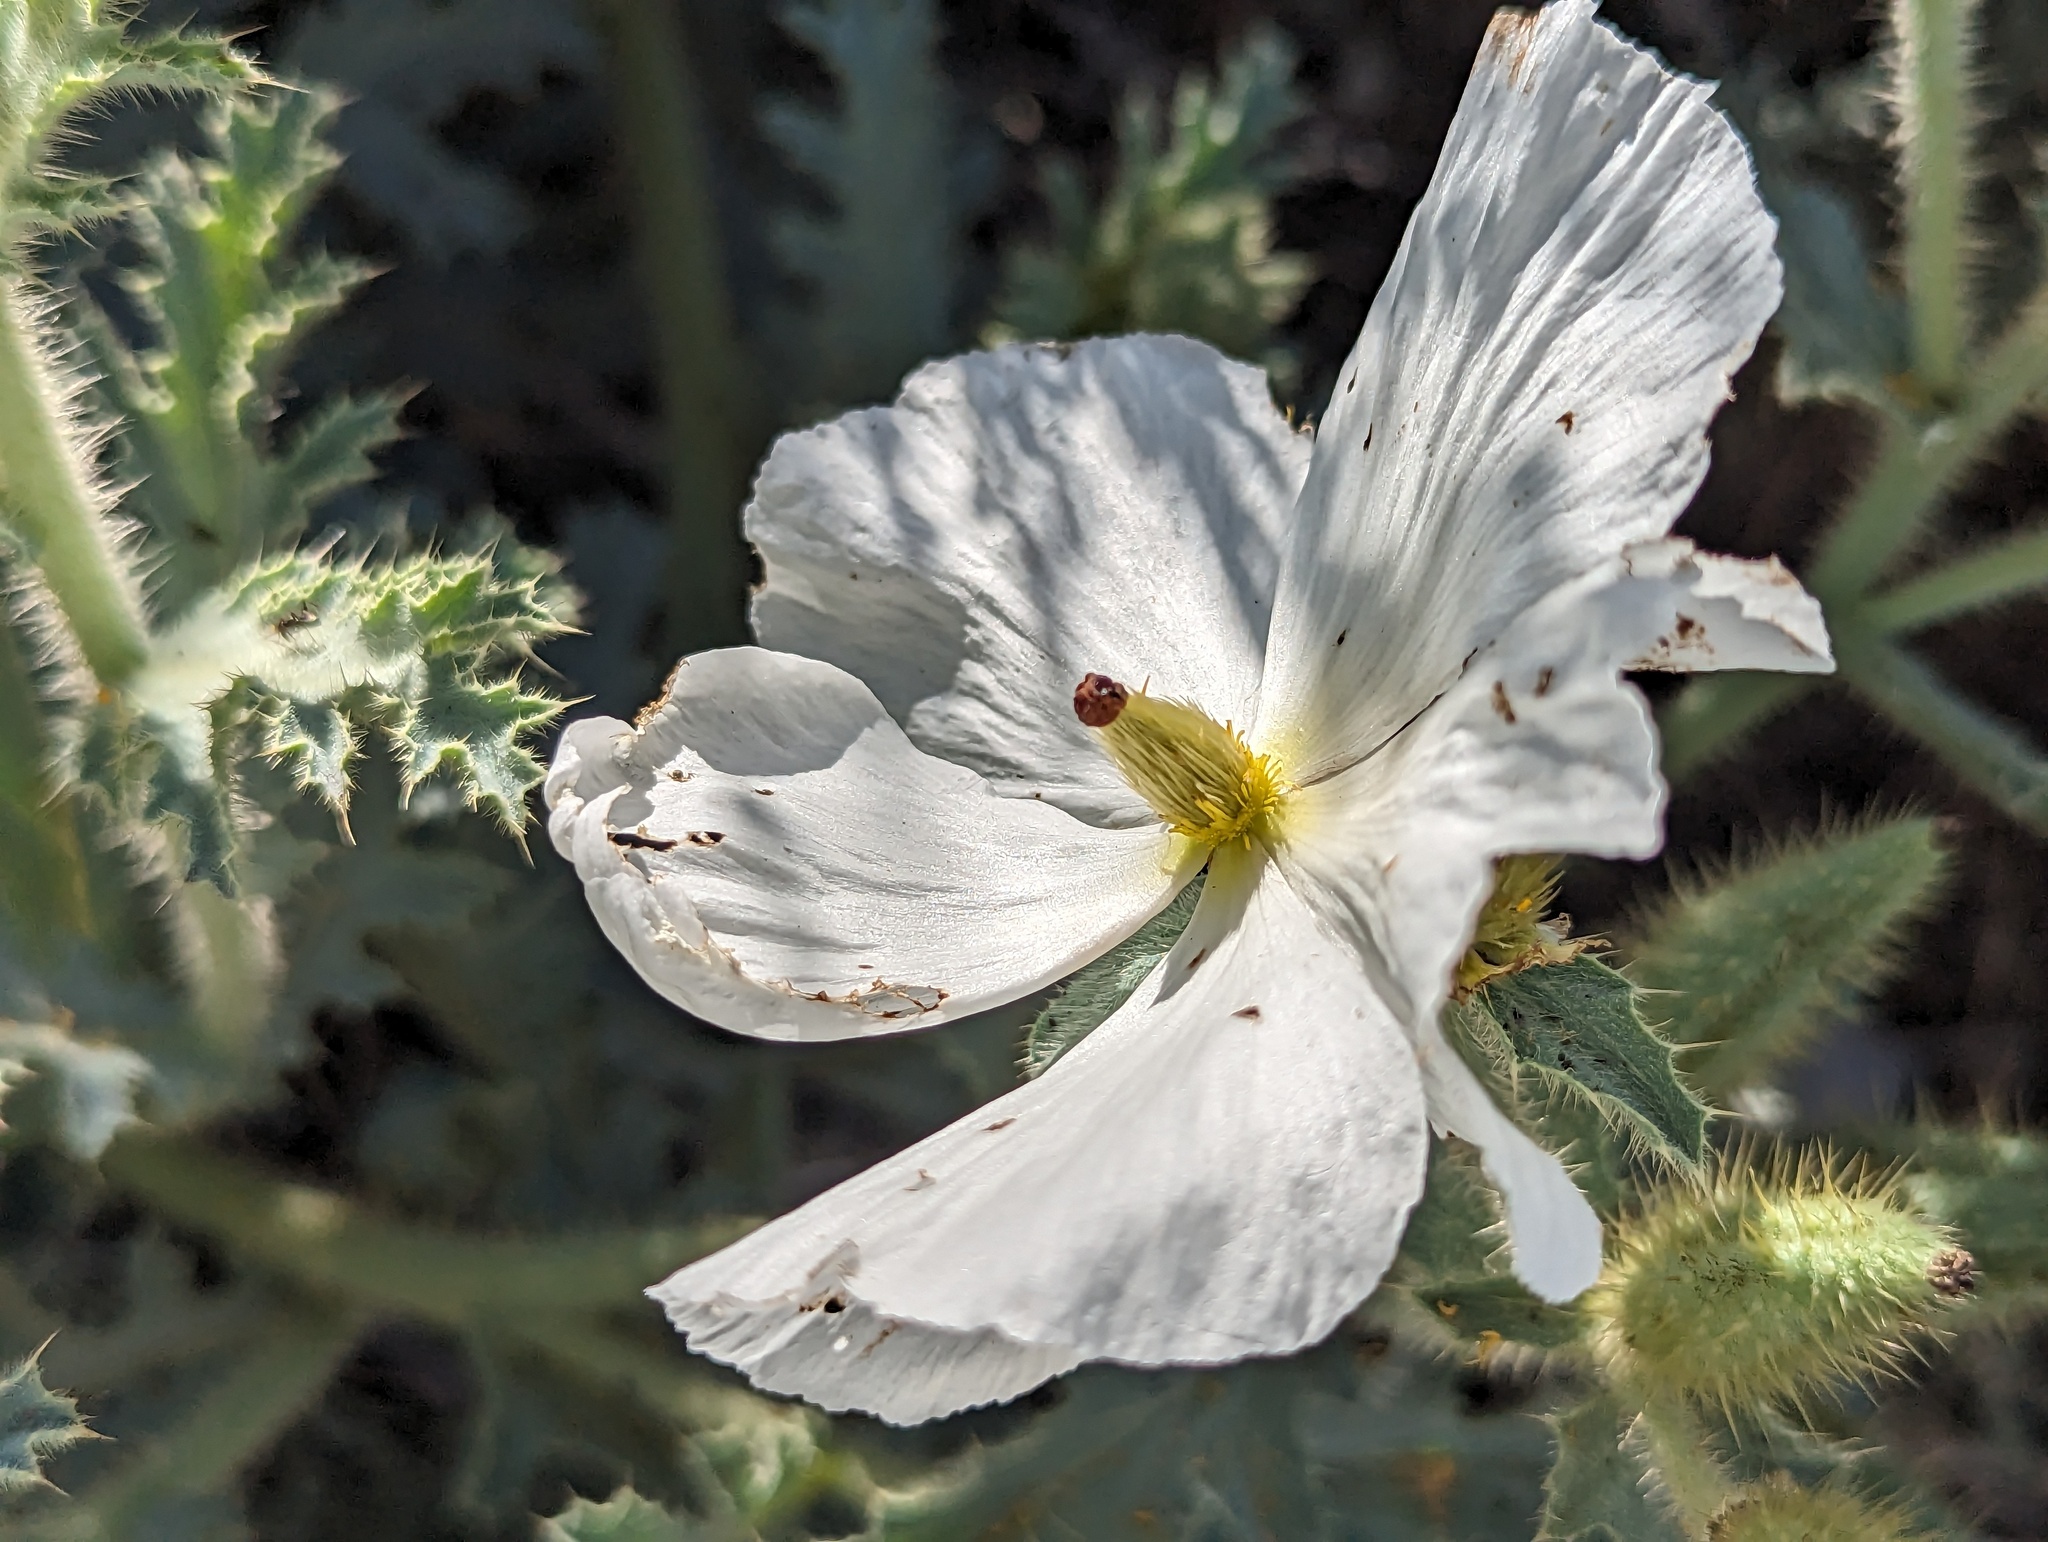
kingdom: Plantae
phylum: Tracheophyta
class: Magnoliopsida
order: Ranunculales
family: Papaveraceae
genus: Argemone
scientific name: Argemone munita
